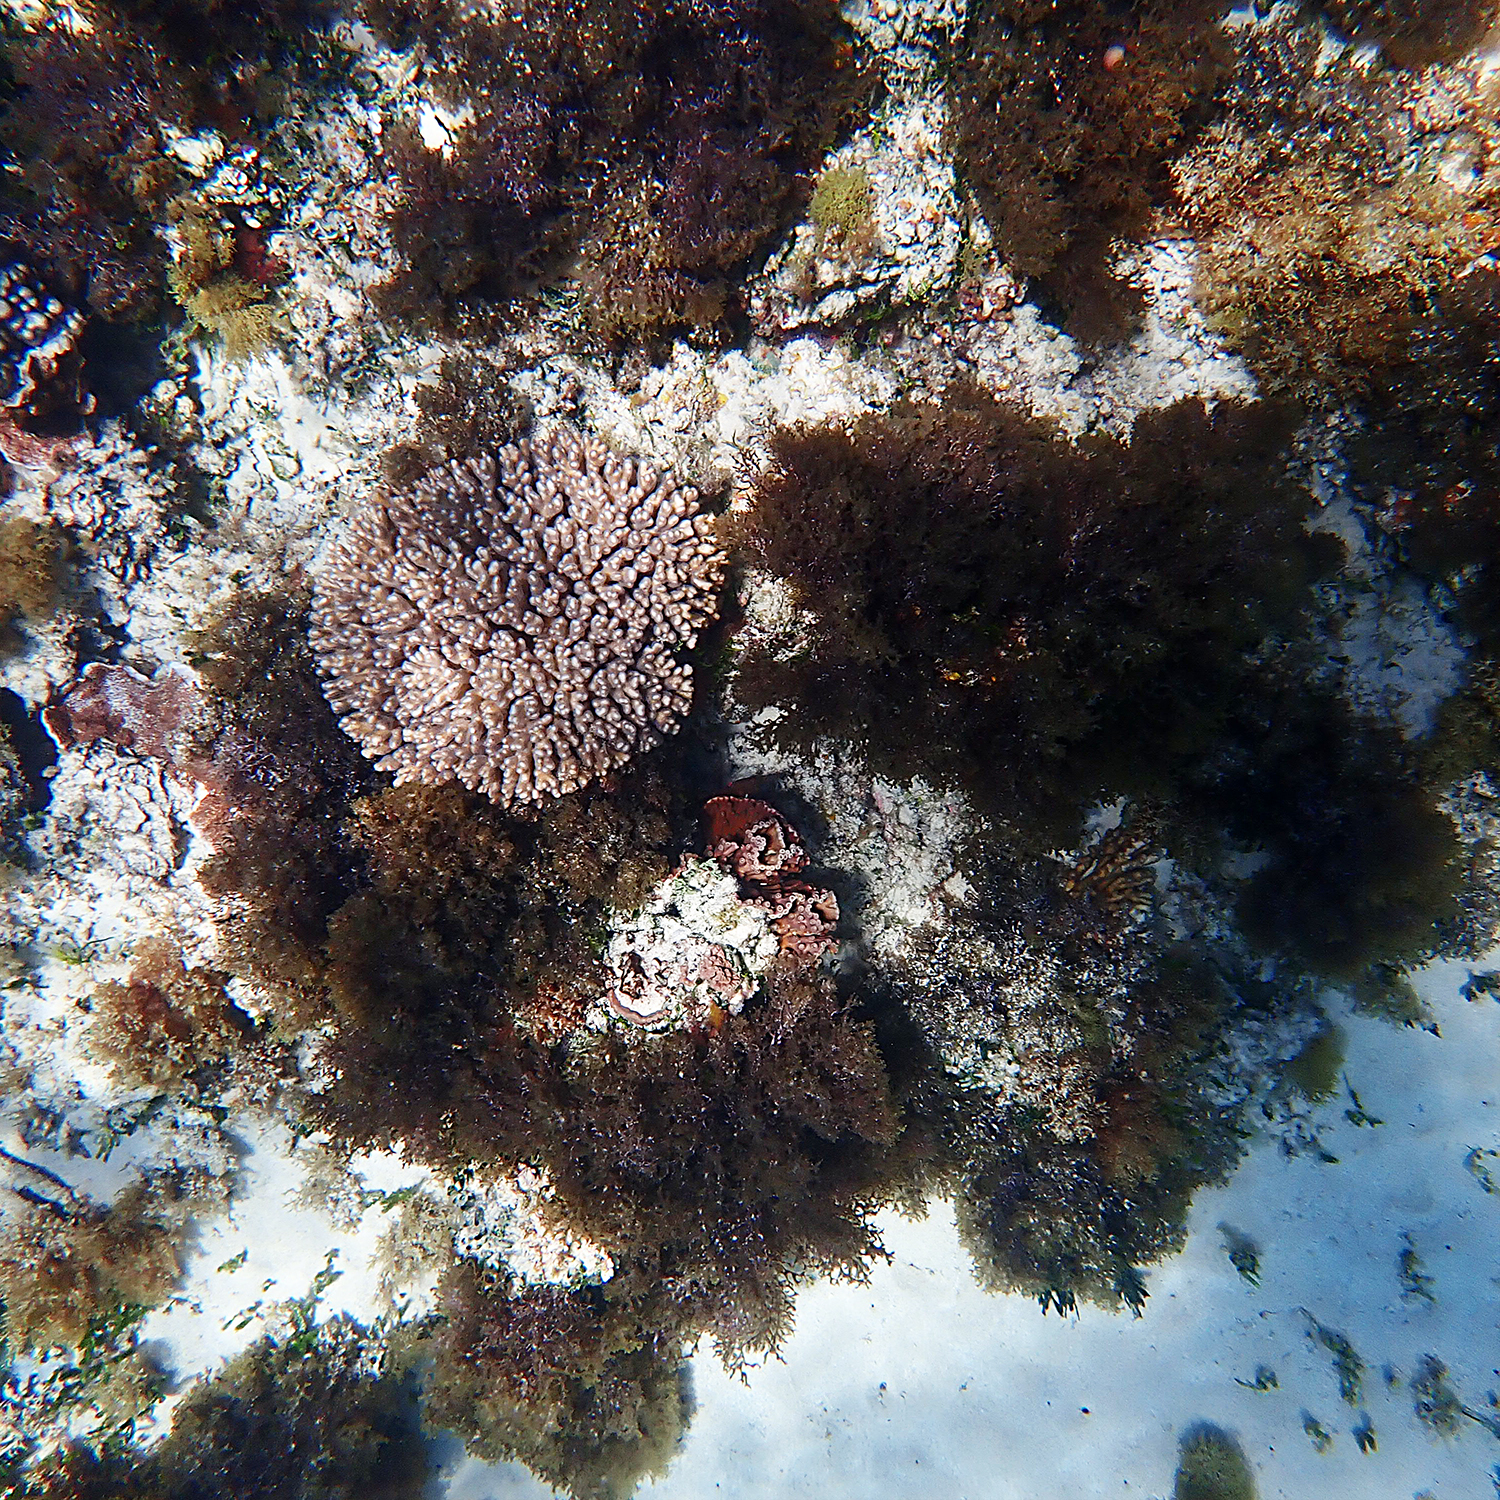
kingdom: Animalia
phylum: Cnidaria
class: Anthozoa
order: Scleractinia
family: Dendrophylliidae
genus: Turbinaria
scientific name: Turbinaria heronensis
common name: Disc coral
